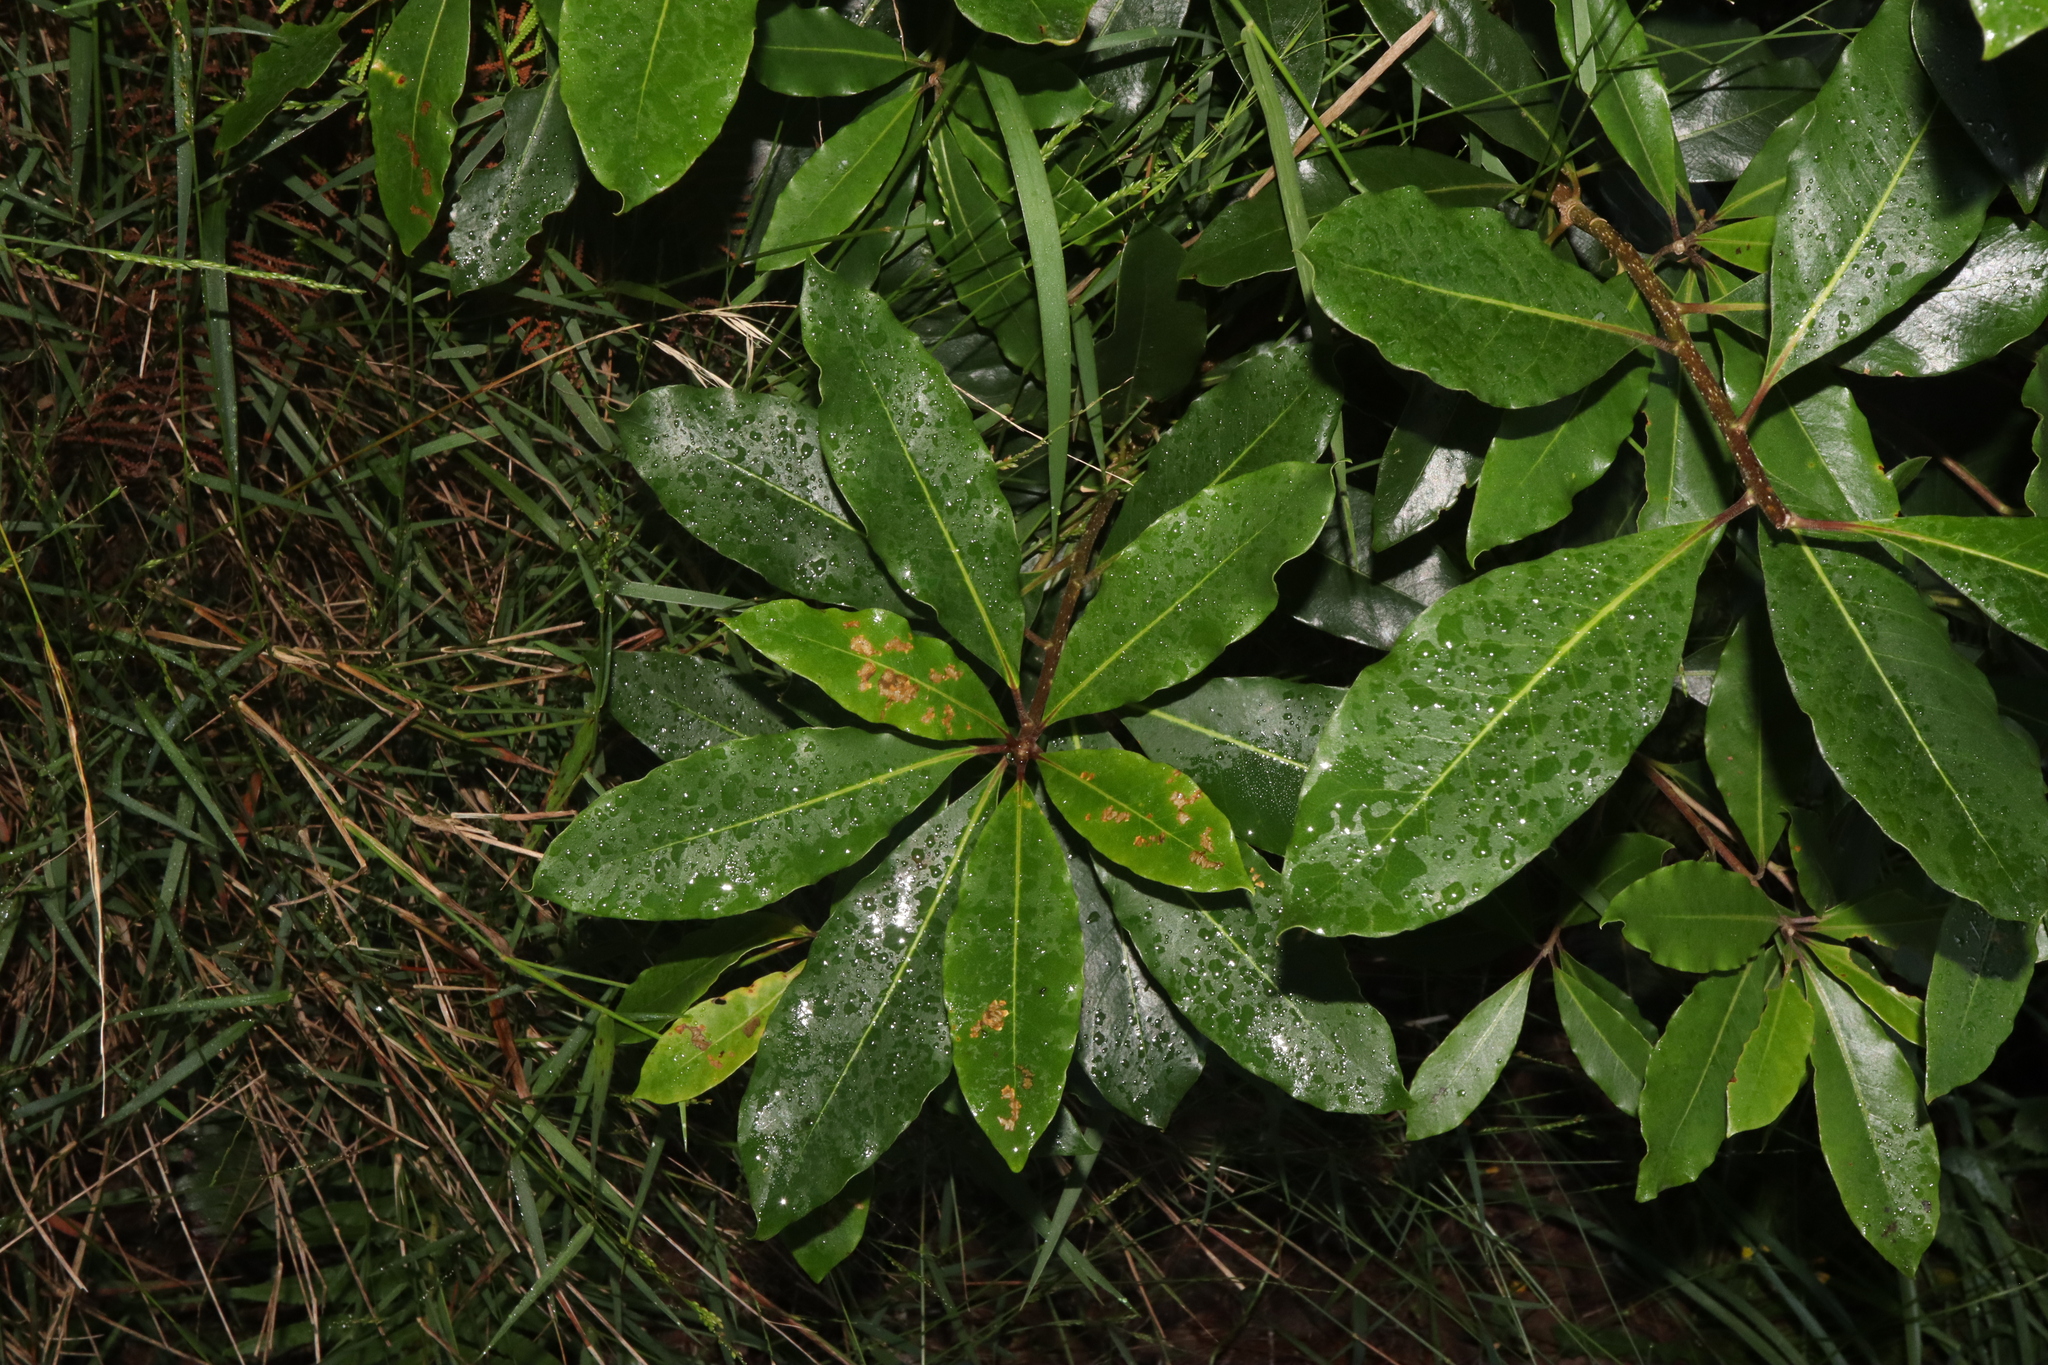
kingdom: Plantae
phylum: Tracheophyta
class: Magnoliopsida
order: Apiales
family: Pittosporaceae
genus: Pittosporum
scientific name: Pittosporum undulatum
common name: Australian cheesewood
